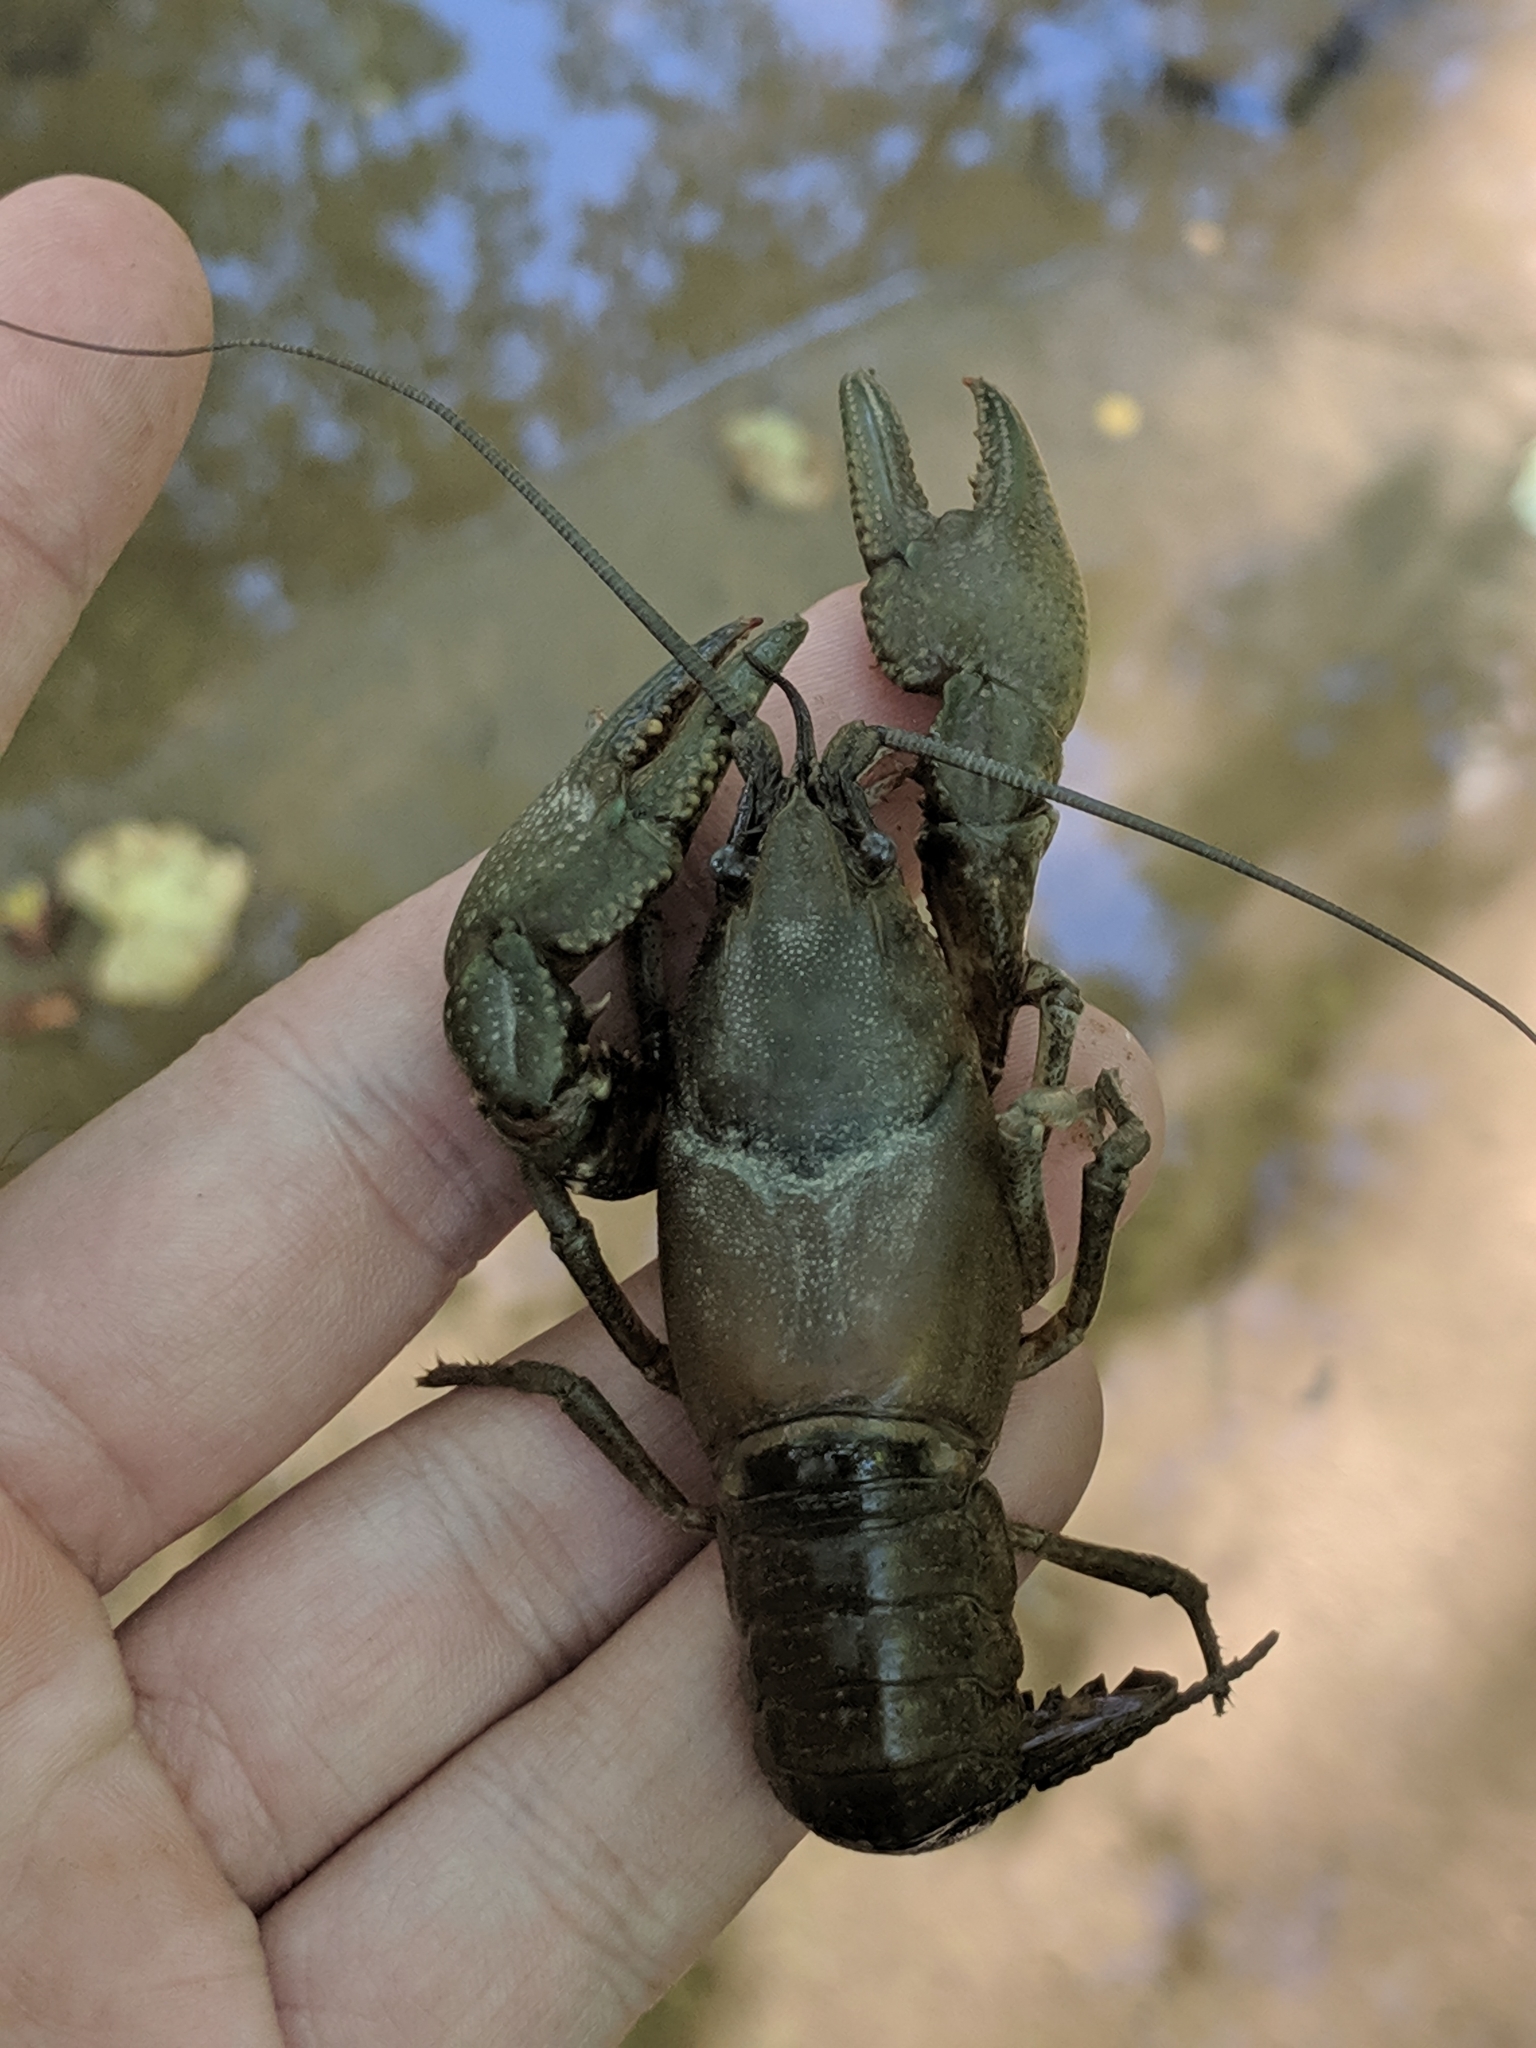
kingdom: Animalia
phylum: Arthropoda
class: Malacostraca
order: Decapoda
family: Cambaridae
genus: Cambarus
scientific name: Cambarus graysoni
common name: Twospot crayfish
